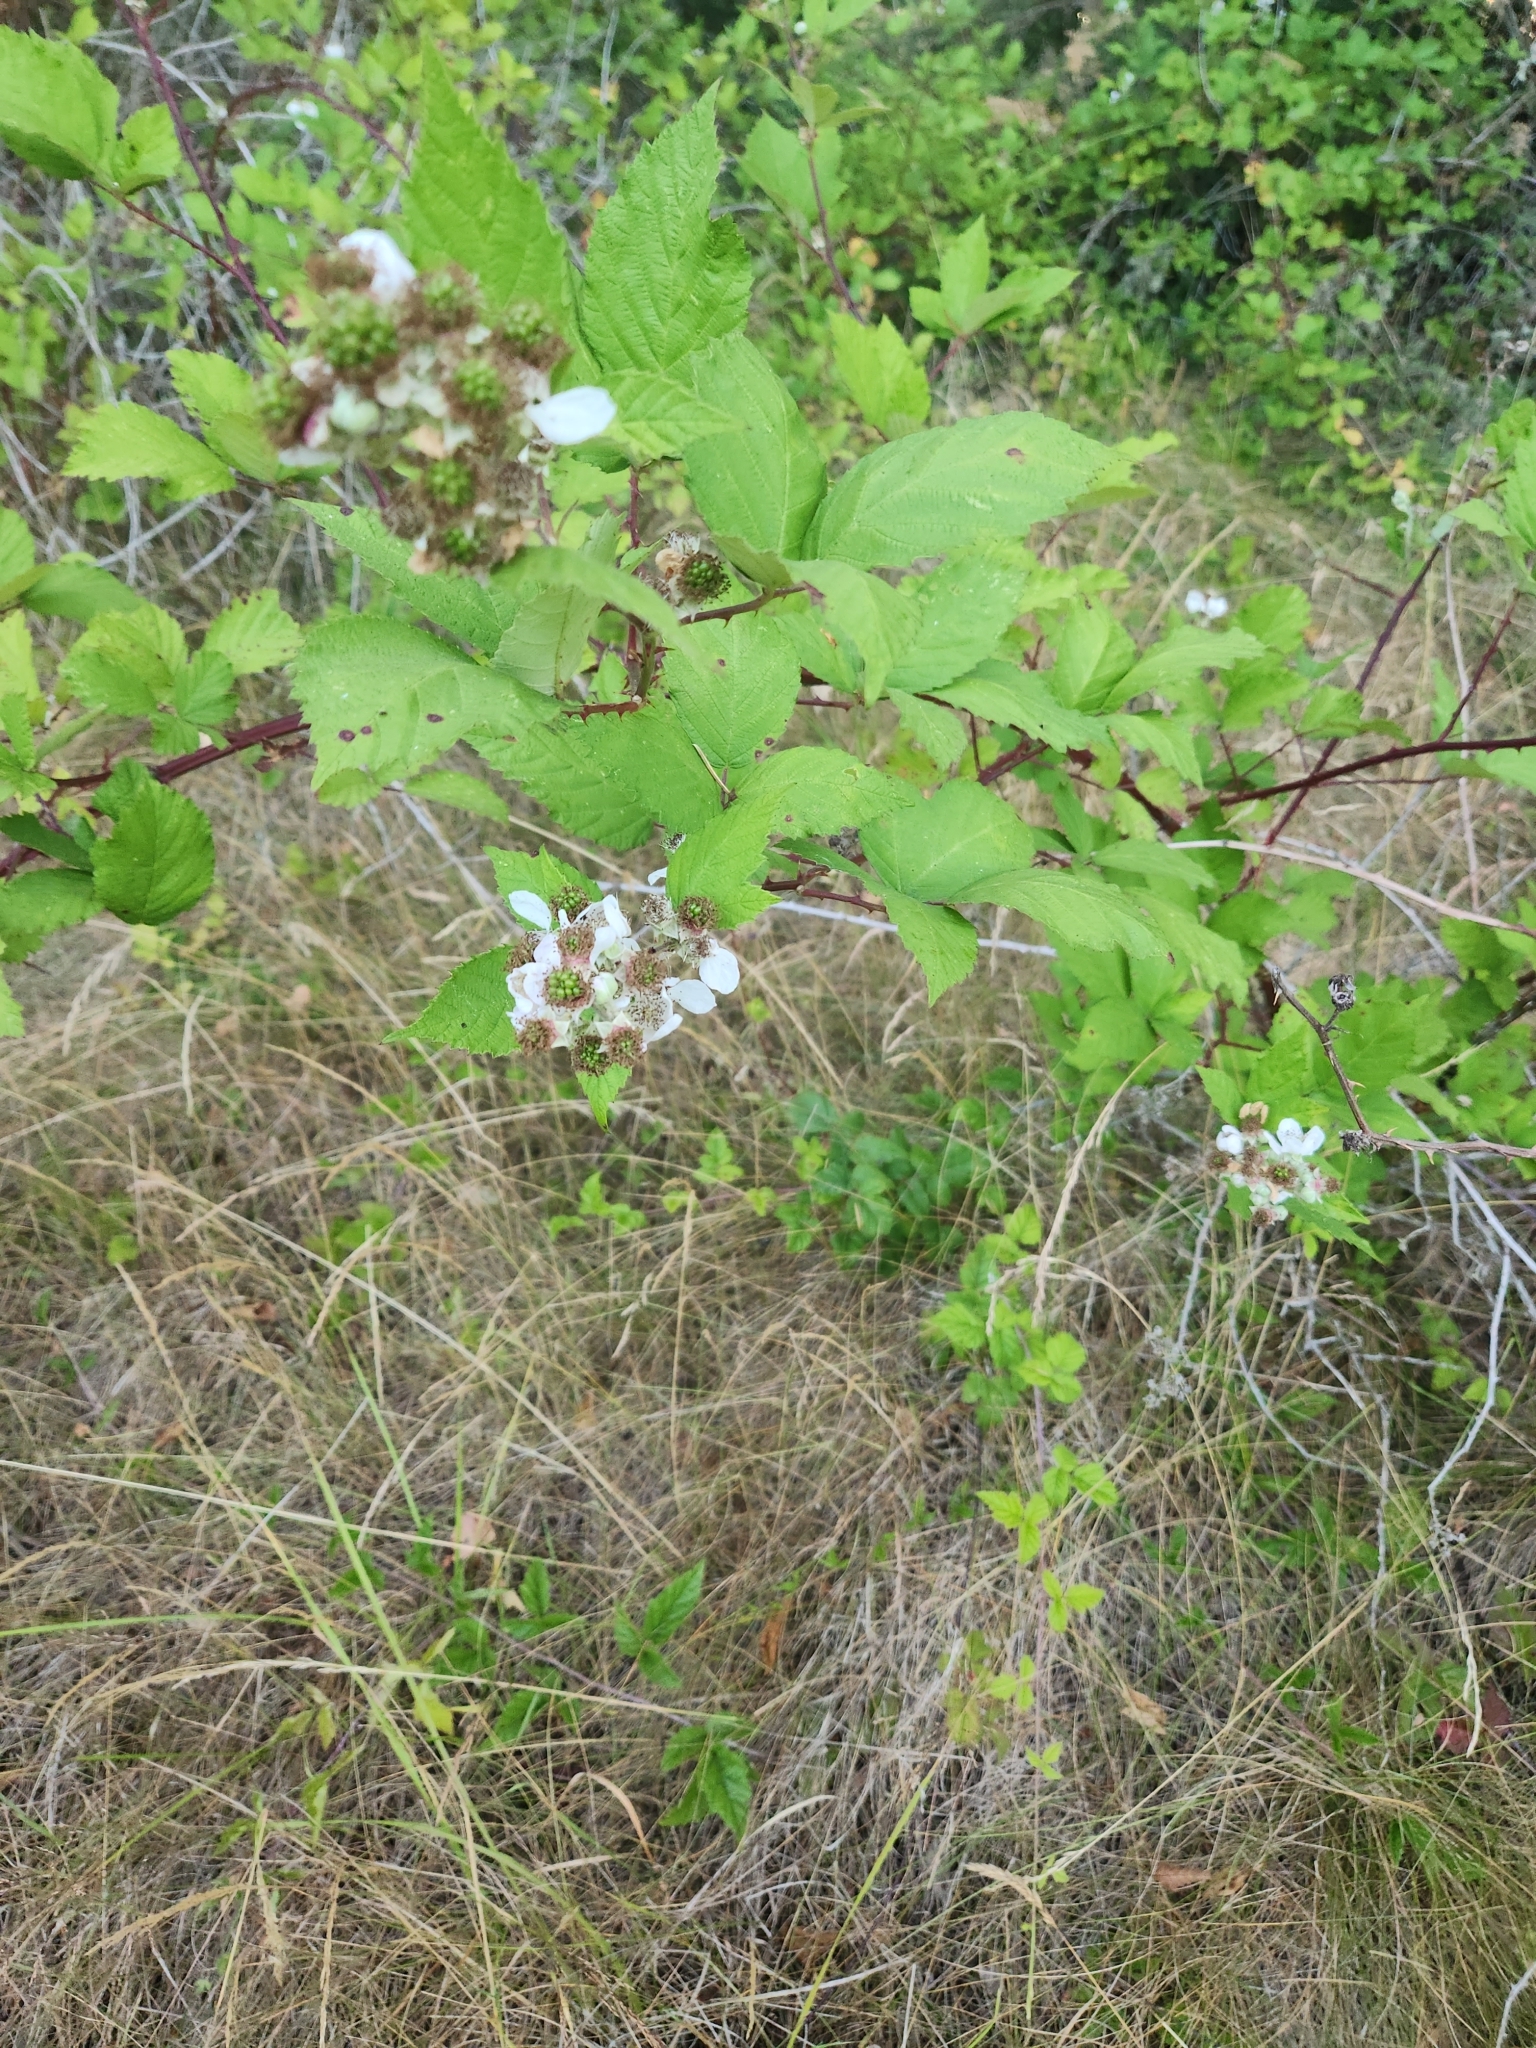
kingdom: Plantae
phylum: Tracheophyta
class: Magnoliopsida
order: Rosales
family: Rosaceae
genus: Rubus
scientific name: Rubus bifrons
